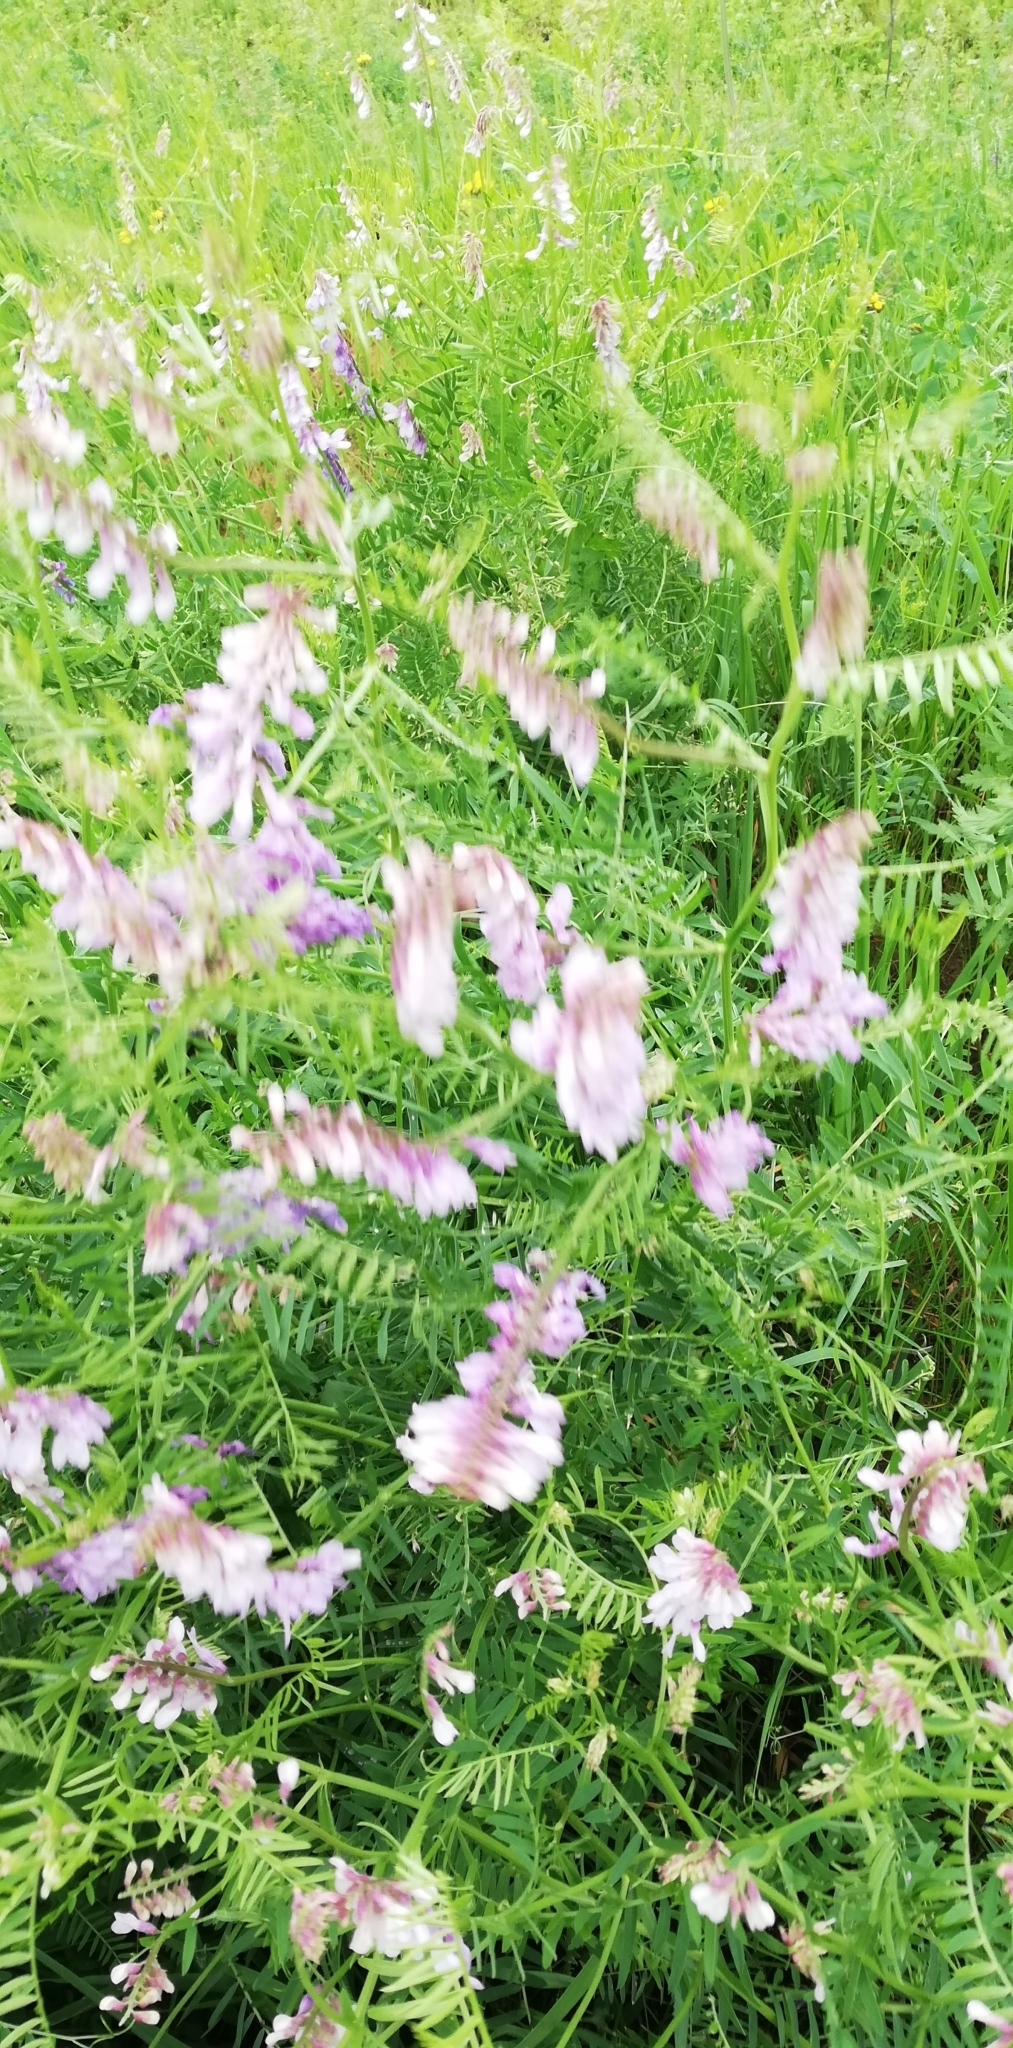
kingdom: Plantae
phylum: Tracheophyta
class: Magnoliopsida
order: Fabales
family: Fabaceae
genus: Vicia
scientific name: Vicia tenuifolia
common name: Fine-leaved vetch
